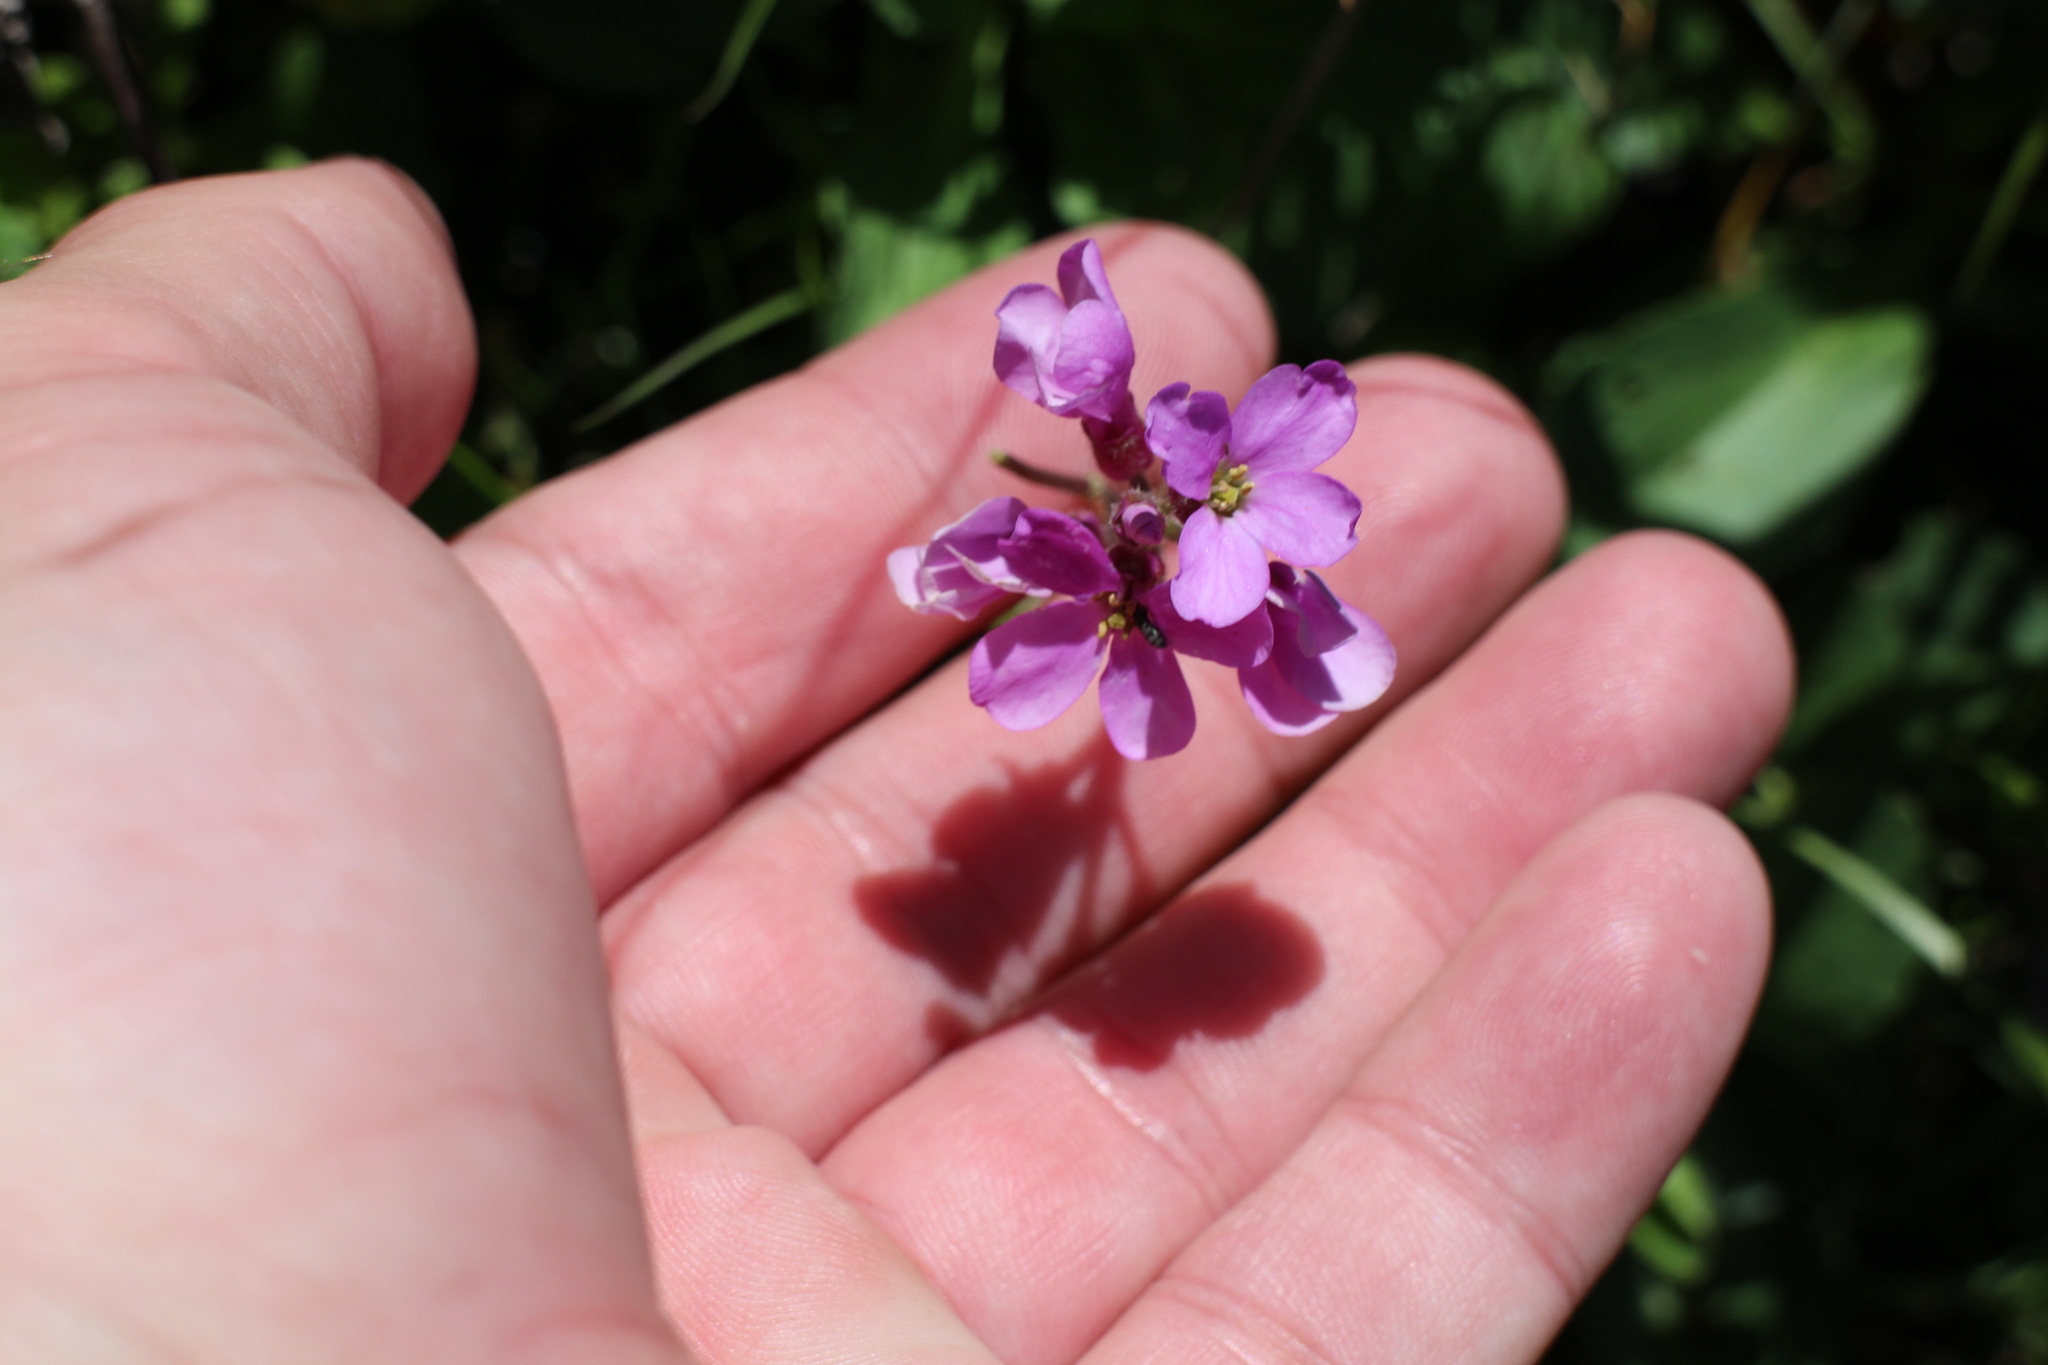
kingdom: Plantae
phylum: Tracheophyta
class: Magnoliopsida
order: Brassicales
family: Brassicaceae
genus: Arabis
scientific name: Arabis blepharophylla
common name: Rose rockcress
